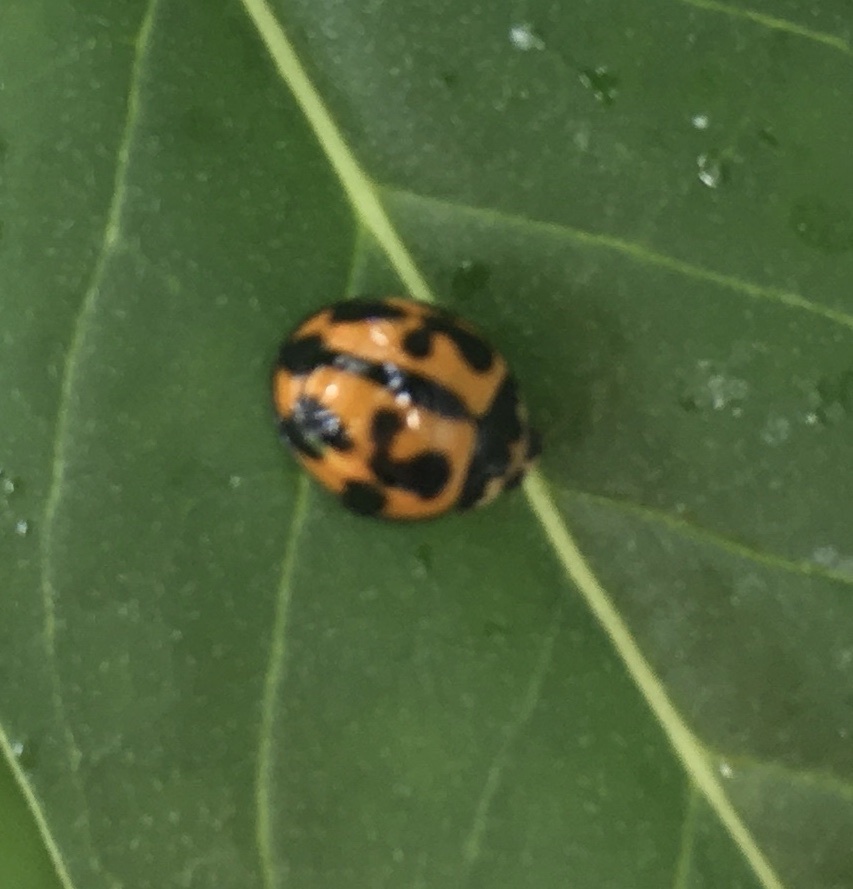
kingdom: Animalia
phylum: Arthropoda
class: Insecta
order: Coleoptera
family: Coccinellidae
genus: Coelophora
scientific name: Coelophora inaequalis
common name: Common australian lady beetle
